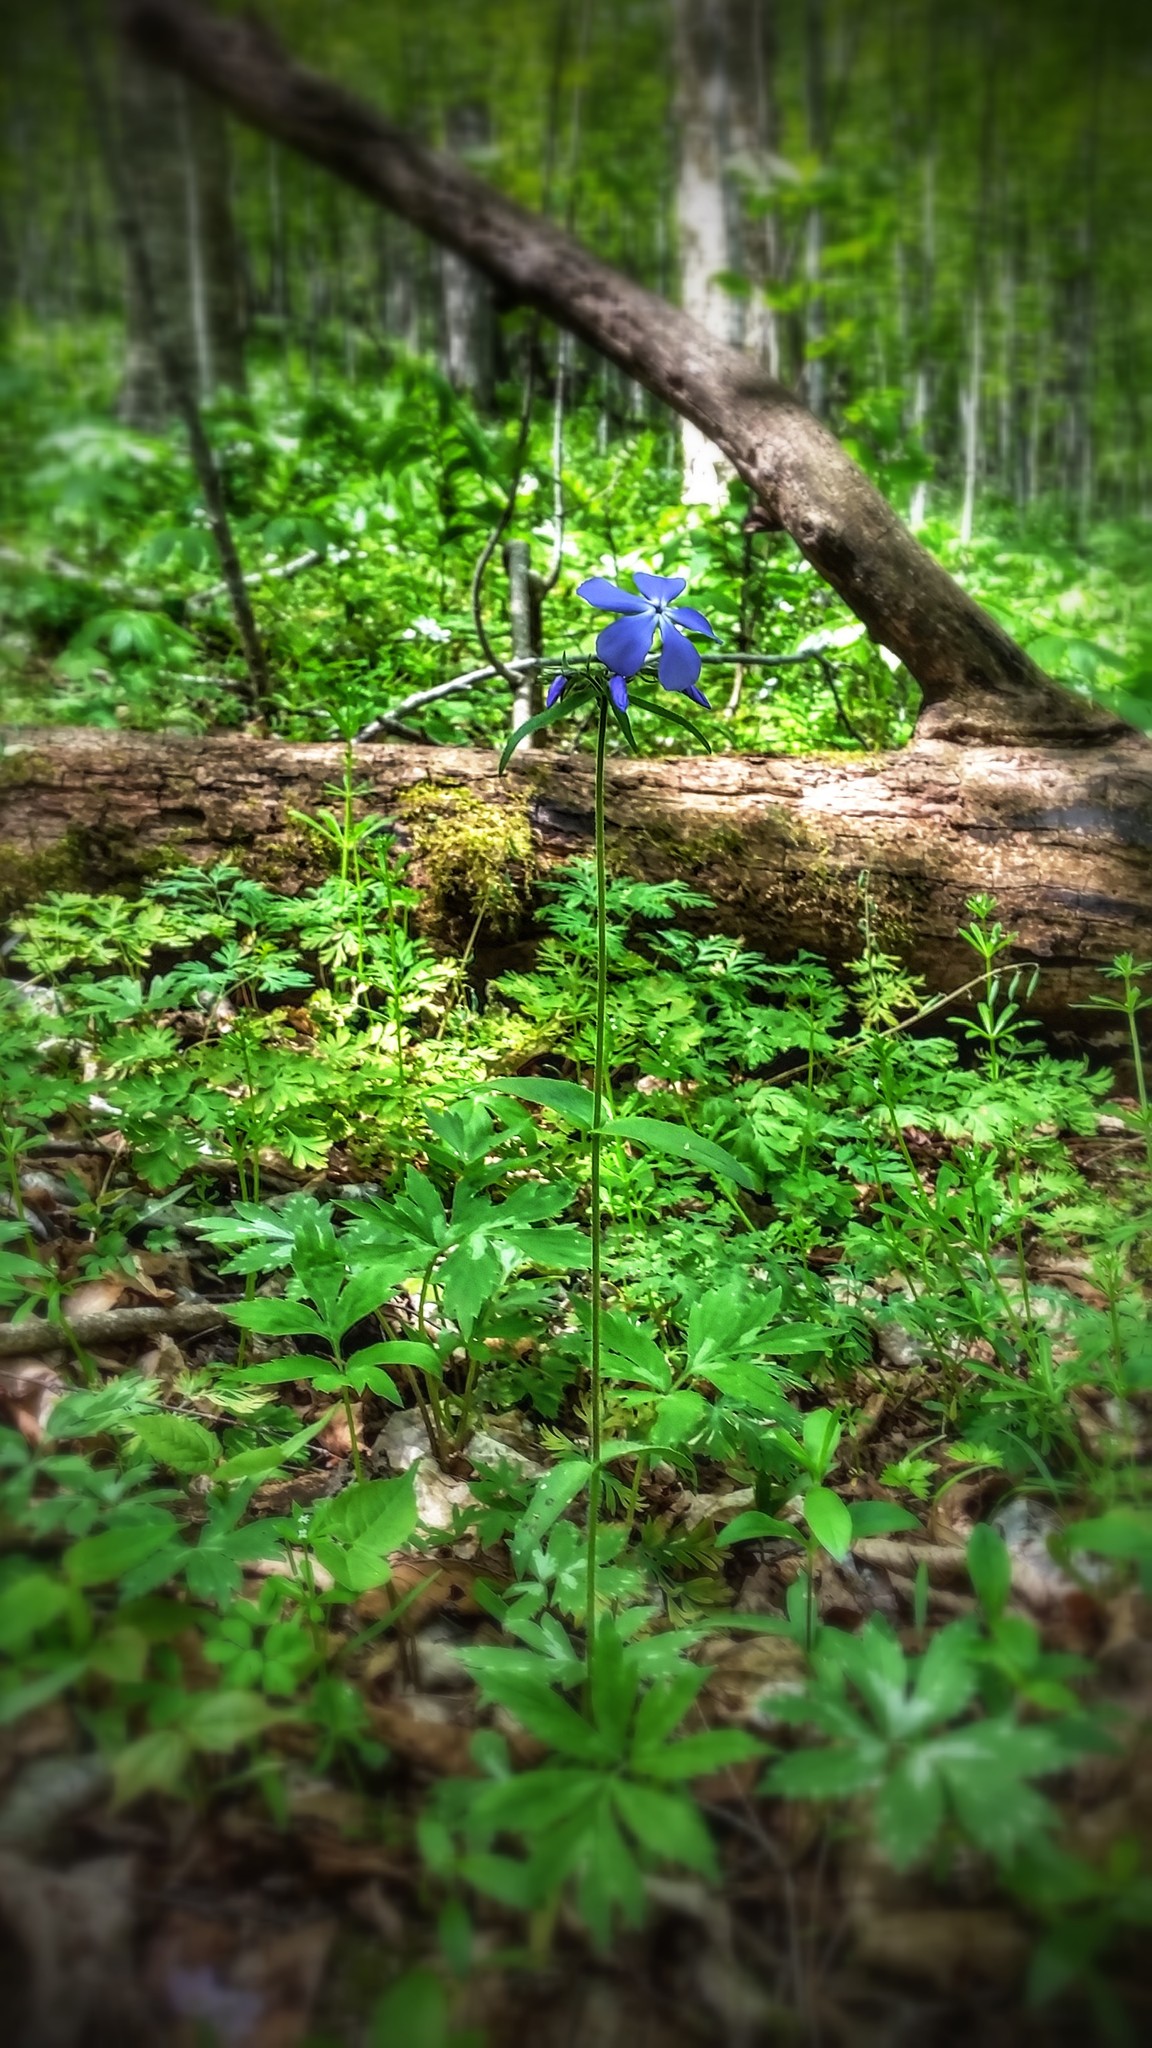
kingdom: Plantae
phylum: Tracheophyta
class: Magnoliopsida
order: Ericales
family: Polemoniaceae
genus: Phlox
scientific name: Phlox divaricata
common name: Blue phlox
